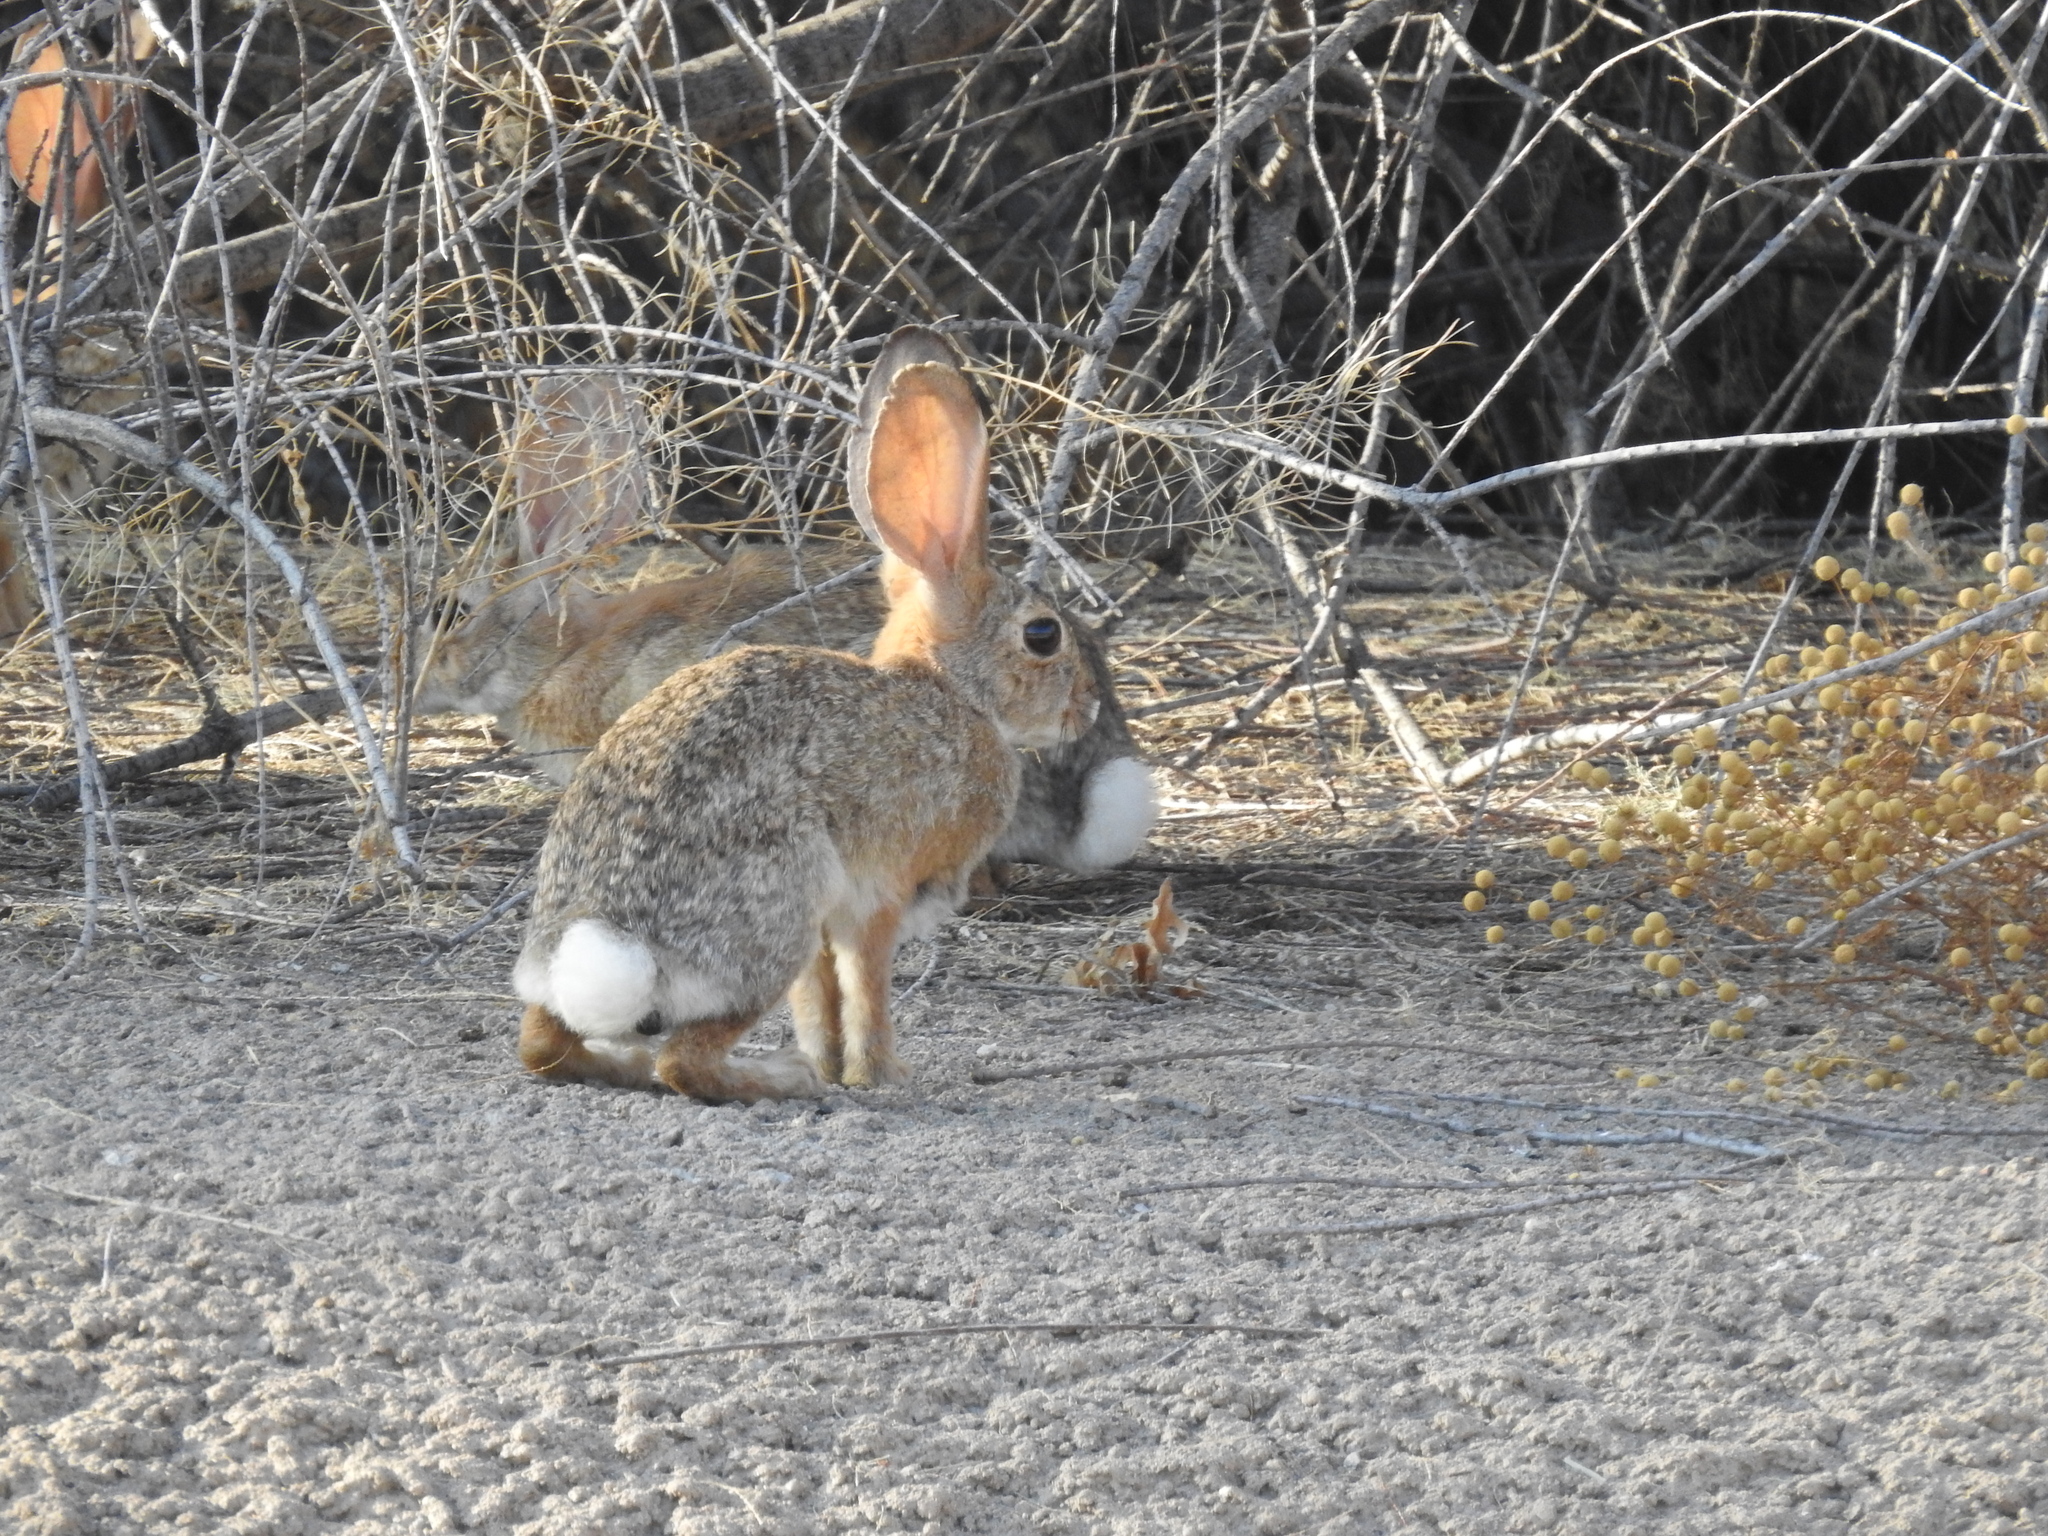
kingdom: Animalia
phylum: Chordata
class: Mammalia
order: Lagomorpha
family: Leporidae
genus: Sylvilagus
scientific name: Sylvilagus audubonii
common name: Desert cottontail
